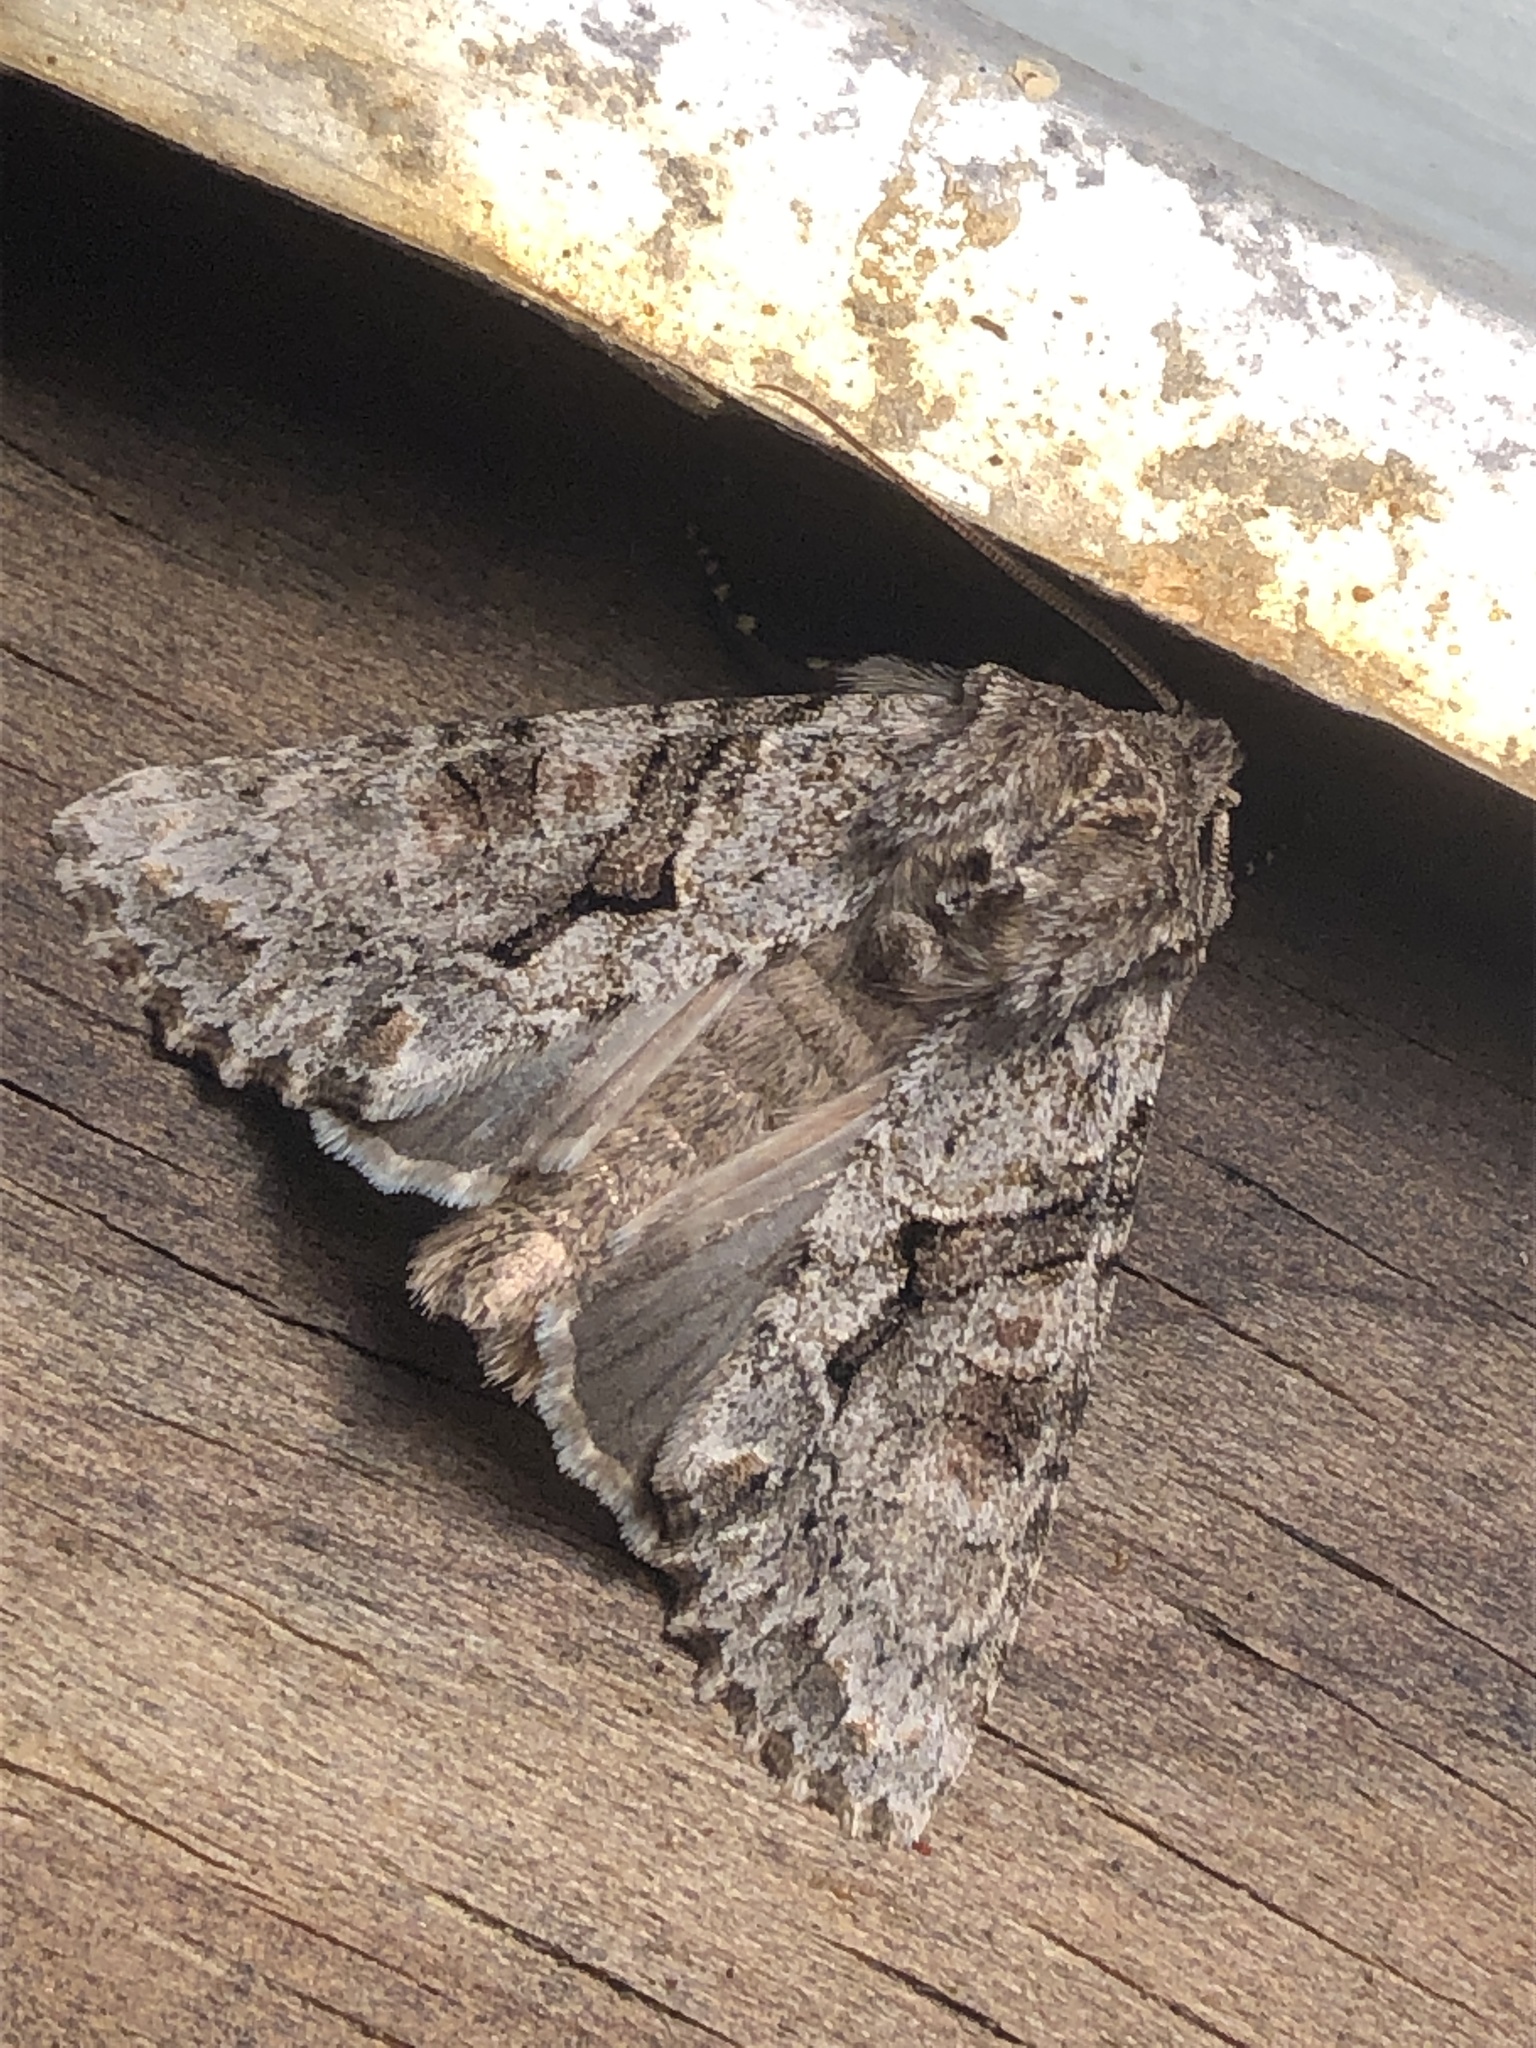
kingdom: Animalia
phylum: Arthropoda
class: Insecta
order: Lepidoptera
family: Noctuidae
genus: Achatia
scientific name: Achatia distincta
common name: Distinct quaker
